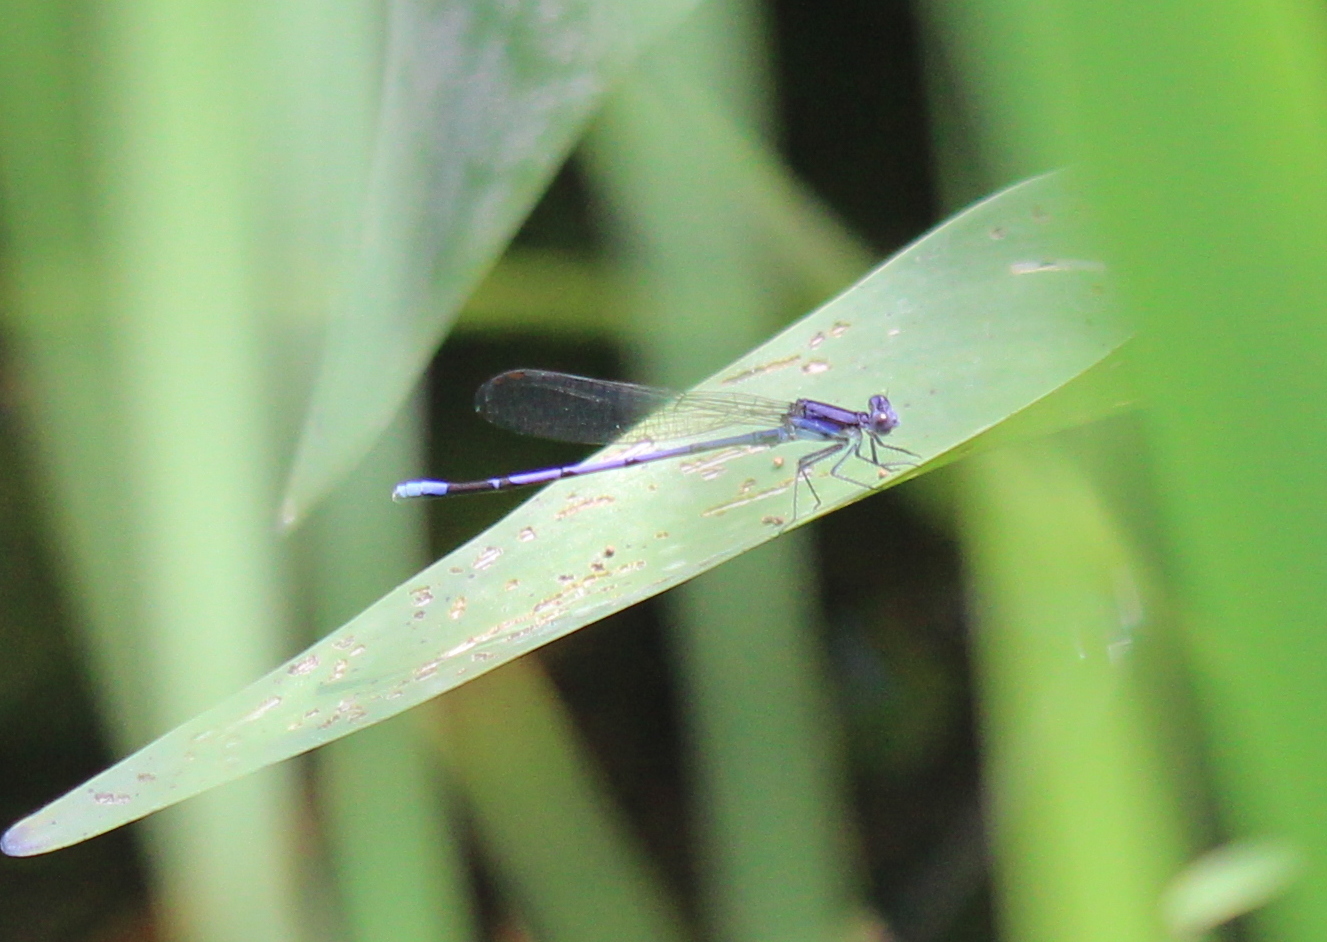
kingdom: Animalia
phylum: Arthropoda
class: Insecta
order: Odonata
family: Coenagrionidae
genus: Argia
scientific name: Argia fumipennis
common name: Variable dancer
